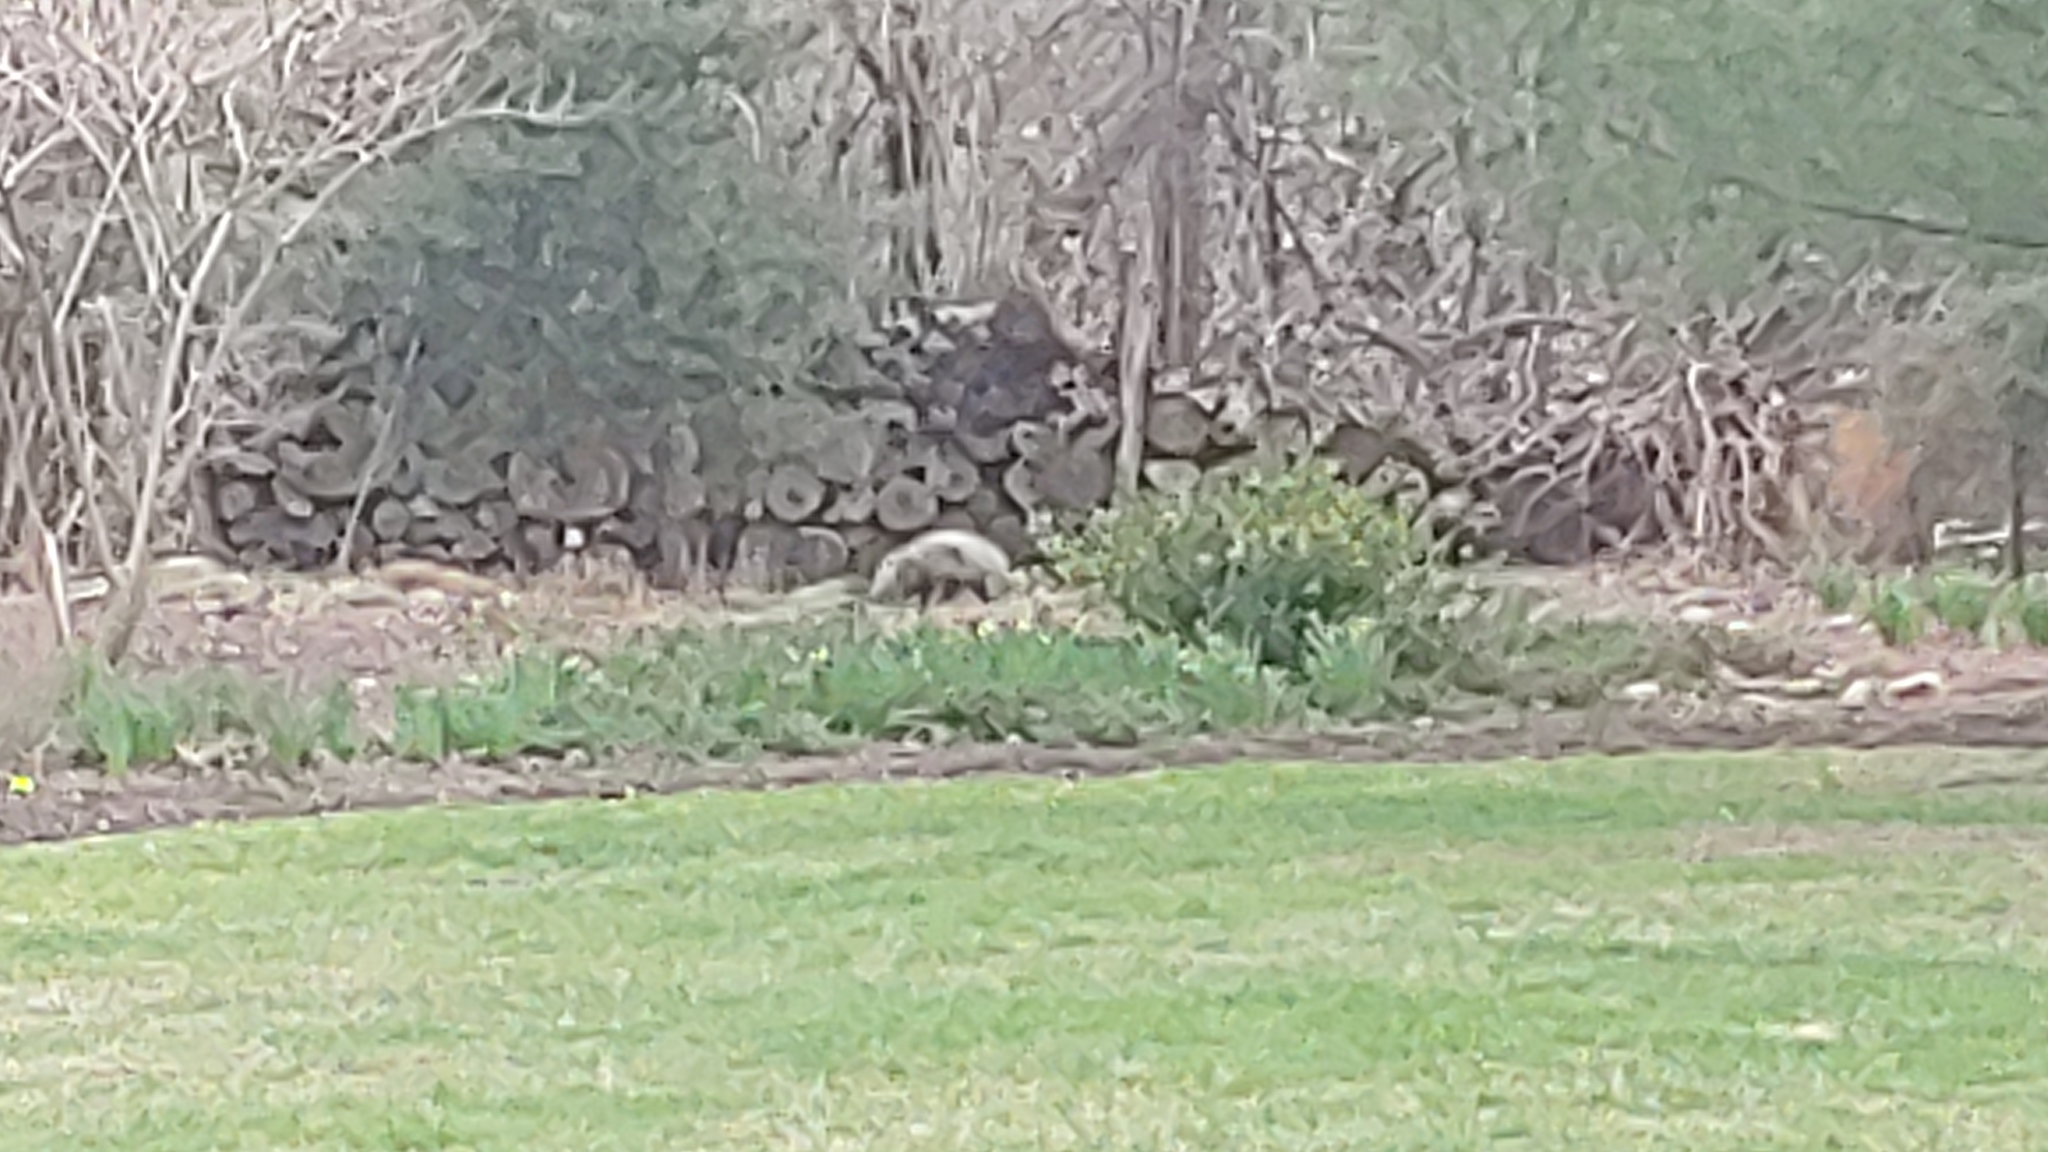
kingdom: Animalia
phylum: Chordata
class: Mammalia
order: Didelphimorphia
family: Didelphidae
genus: Didelphis
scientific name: Didelphis virginiana
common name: Virginia opossum
